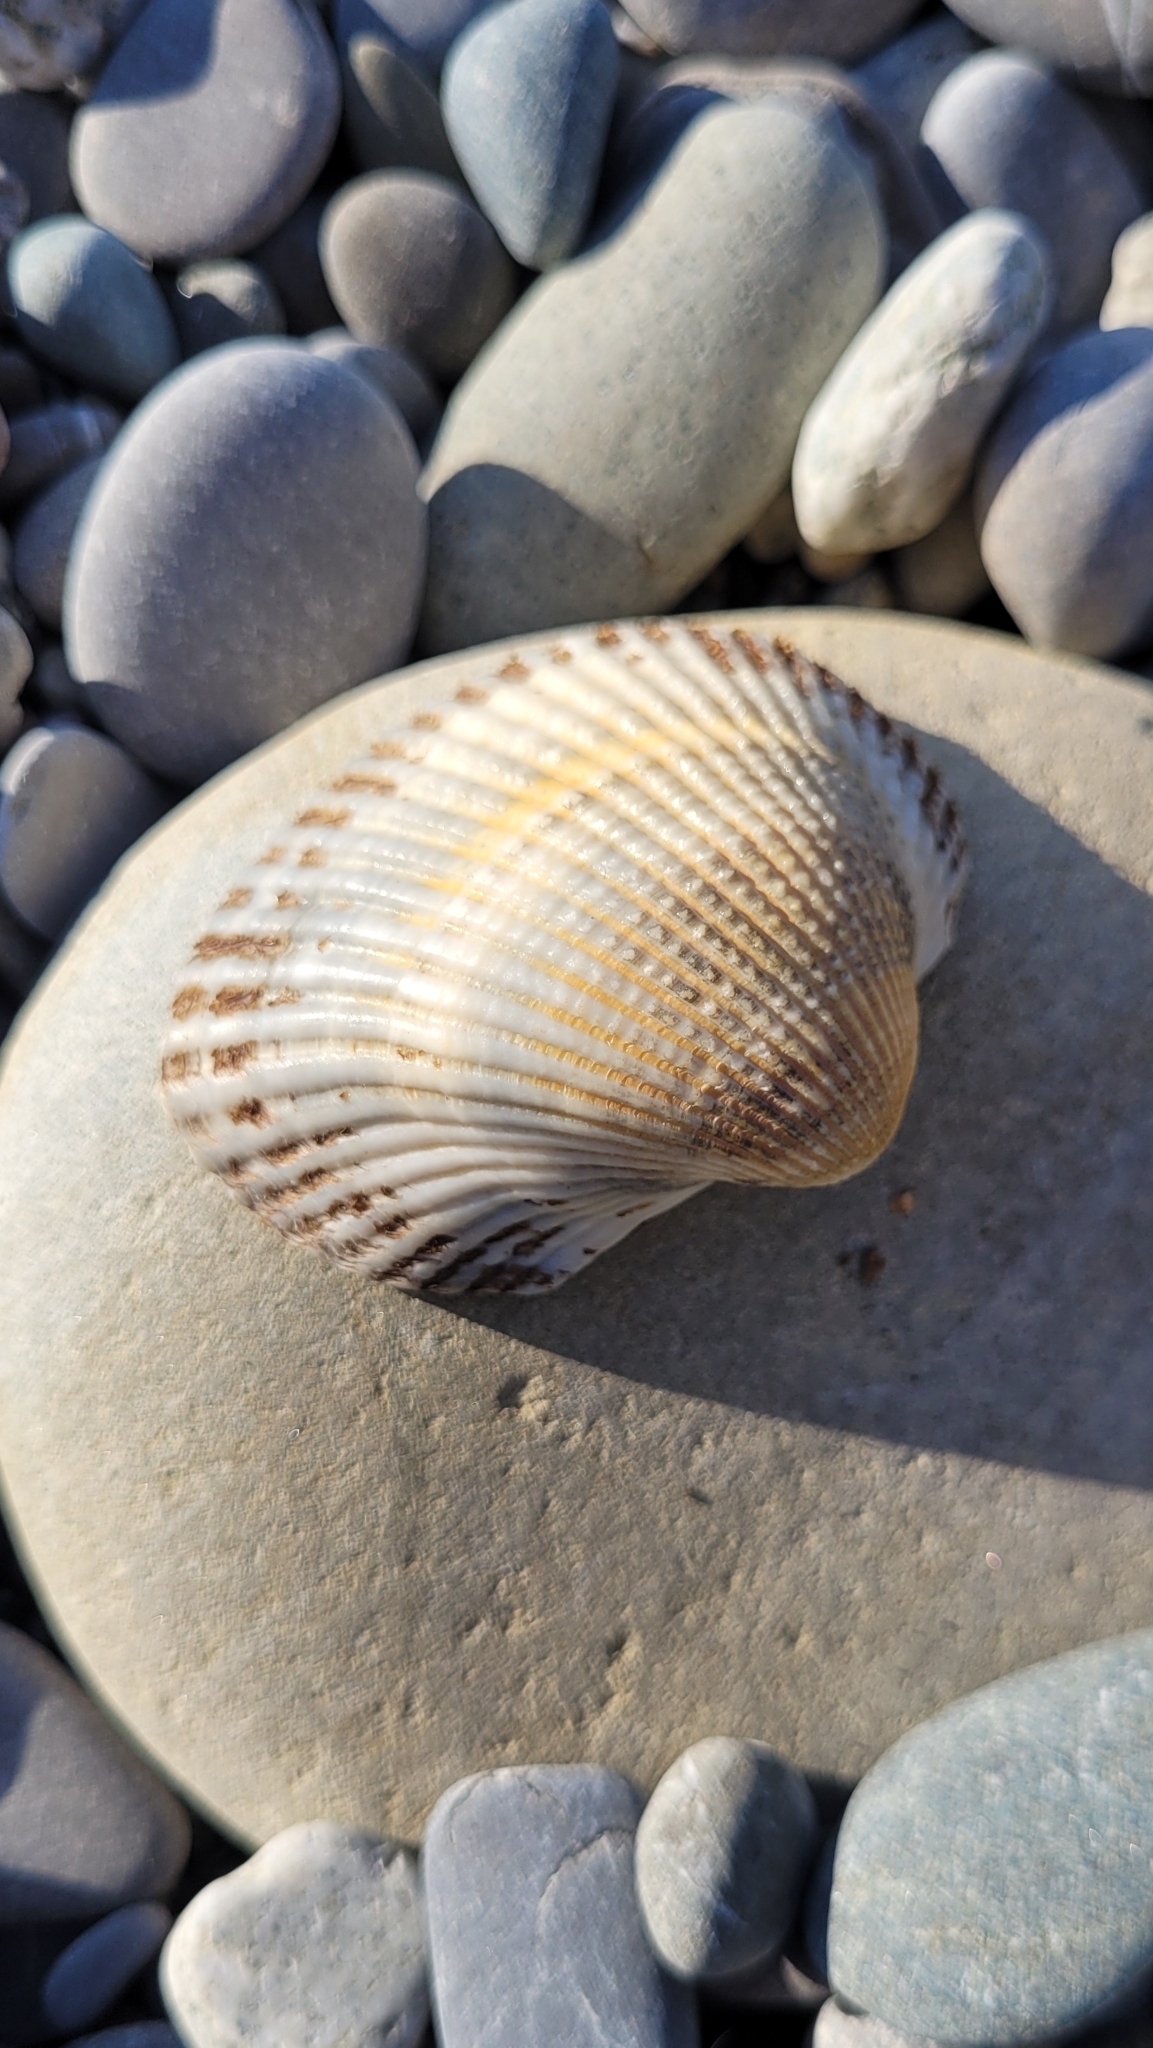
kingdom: Animalia
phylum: Mollusca
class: Bivalvia
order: Arcida
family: Arcidae
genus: Anadara
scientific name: Anadara kagoshimensis
